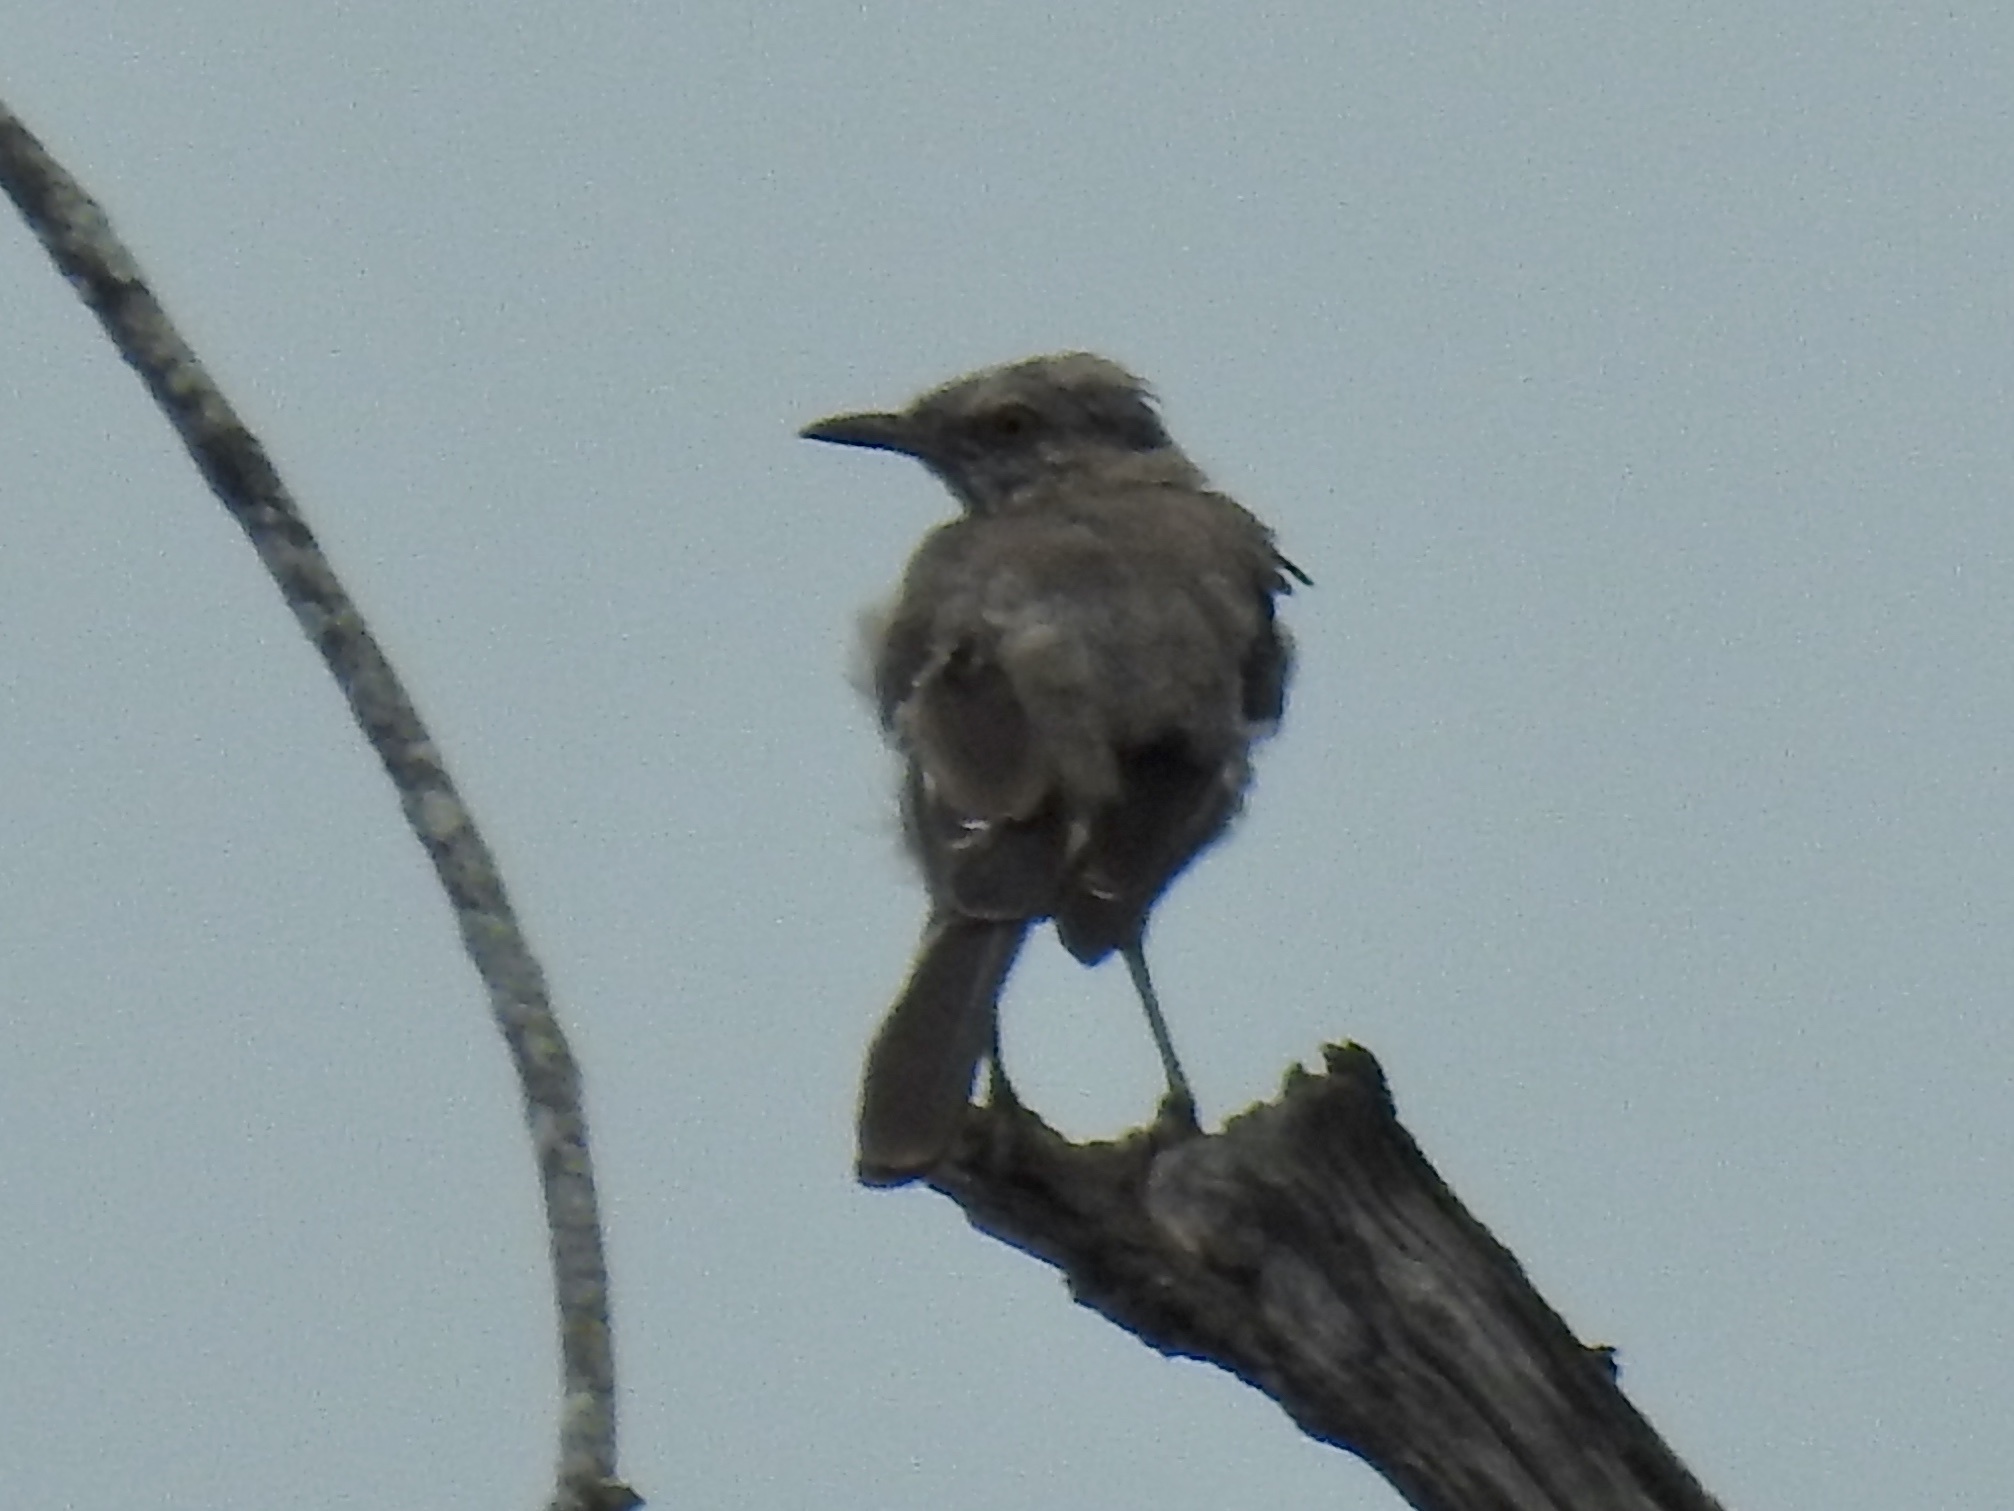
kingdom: Animalia
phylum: Chordata
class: Aves
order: Passeriformes
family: Mimidae
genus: Mimus
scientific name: Mimus polyglottos
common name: Northern mockingbird
